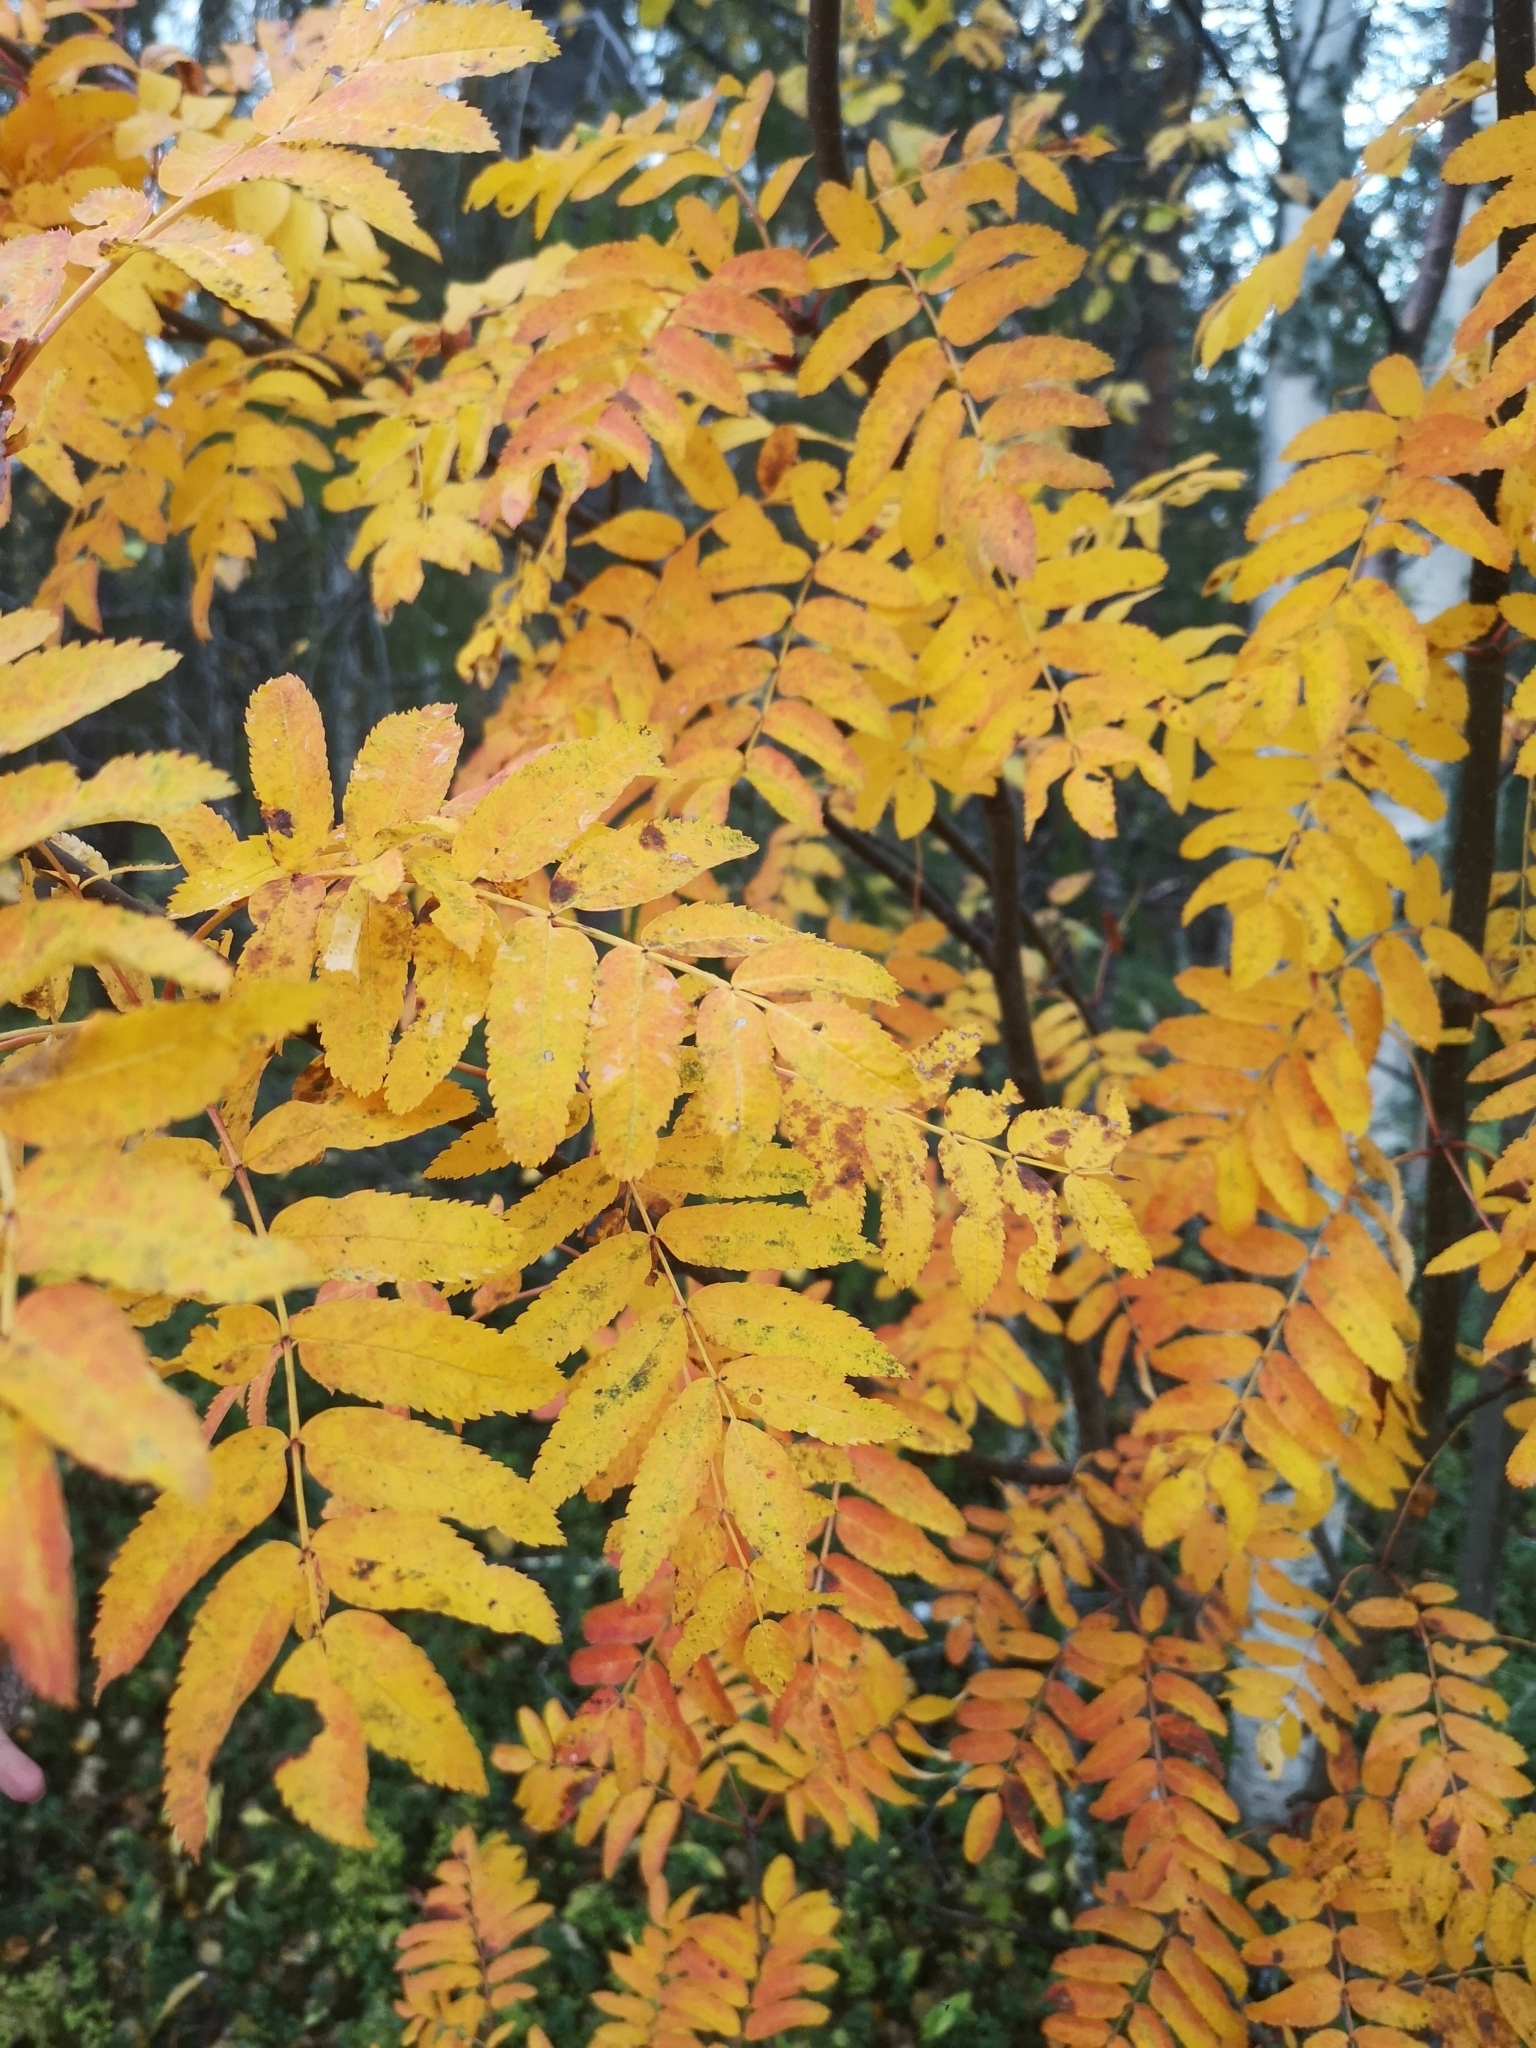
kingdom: Plantae
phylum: Tracheophyta
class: Magnoliopsida
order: Rosales
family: Rosaceae
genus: Sorbus
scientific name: Sorbus aucuparia
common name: Rowan
